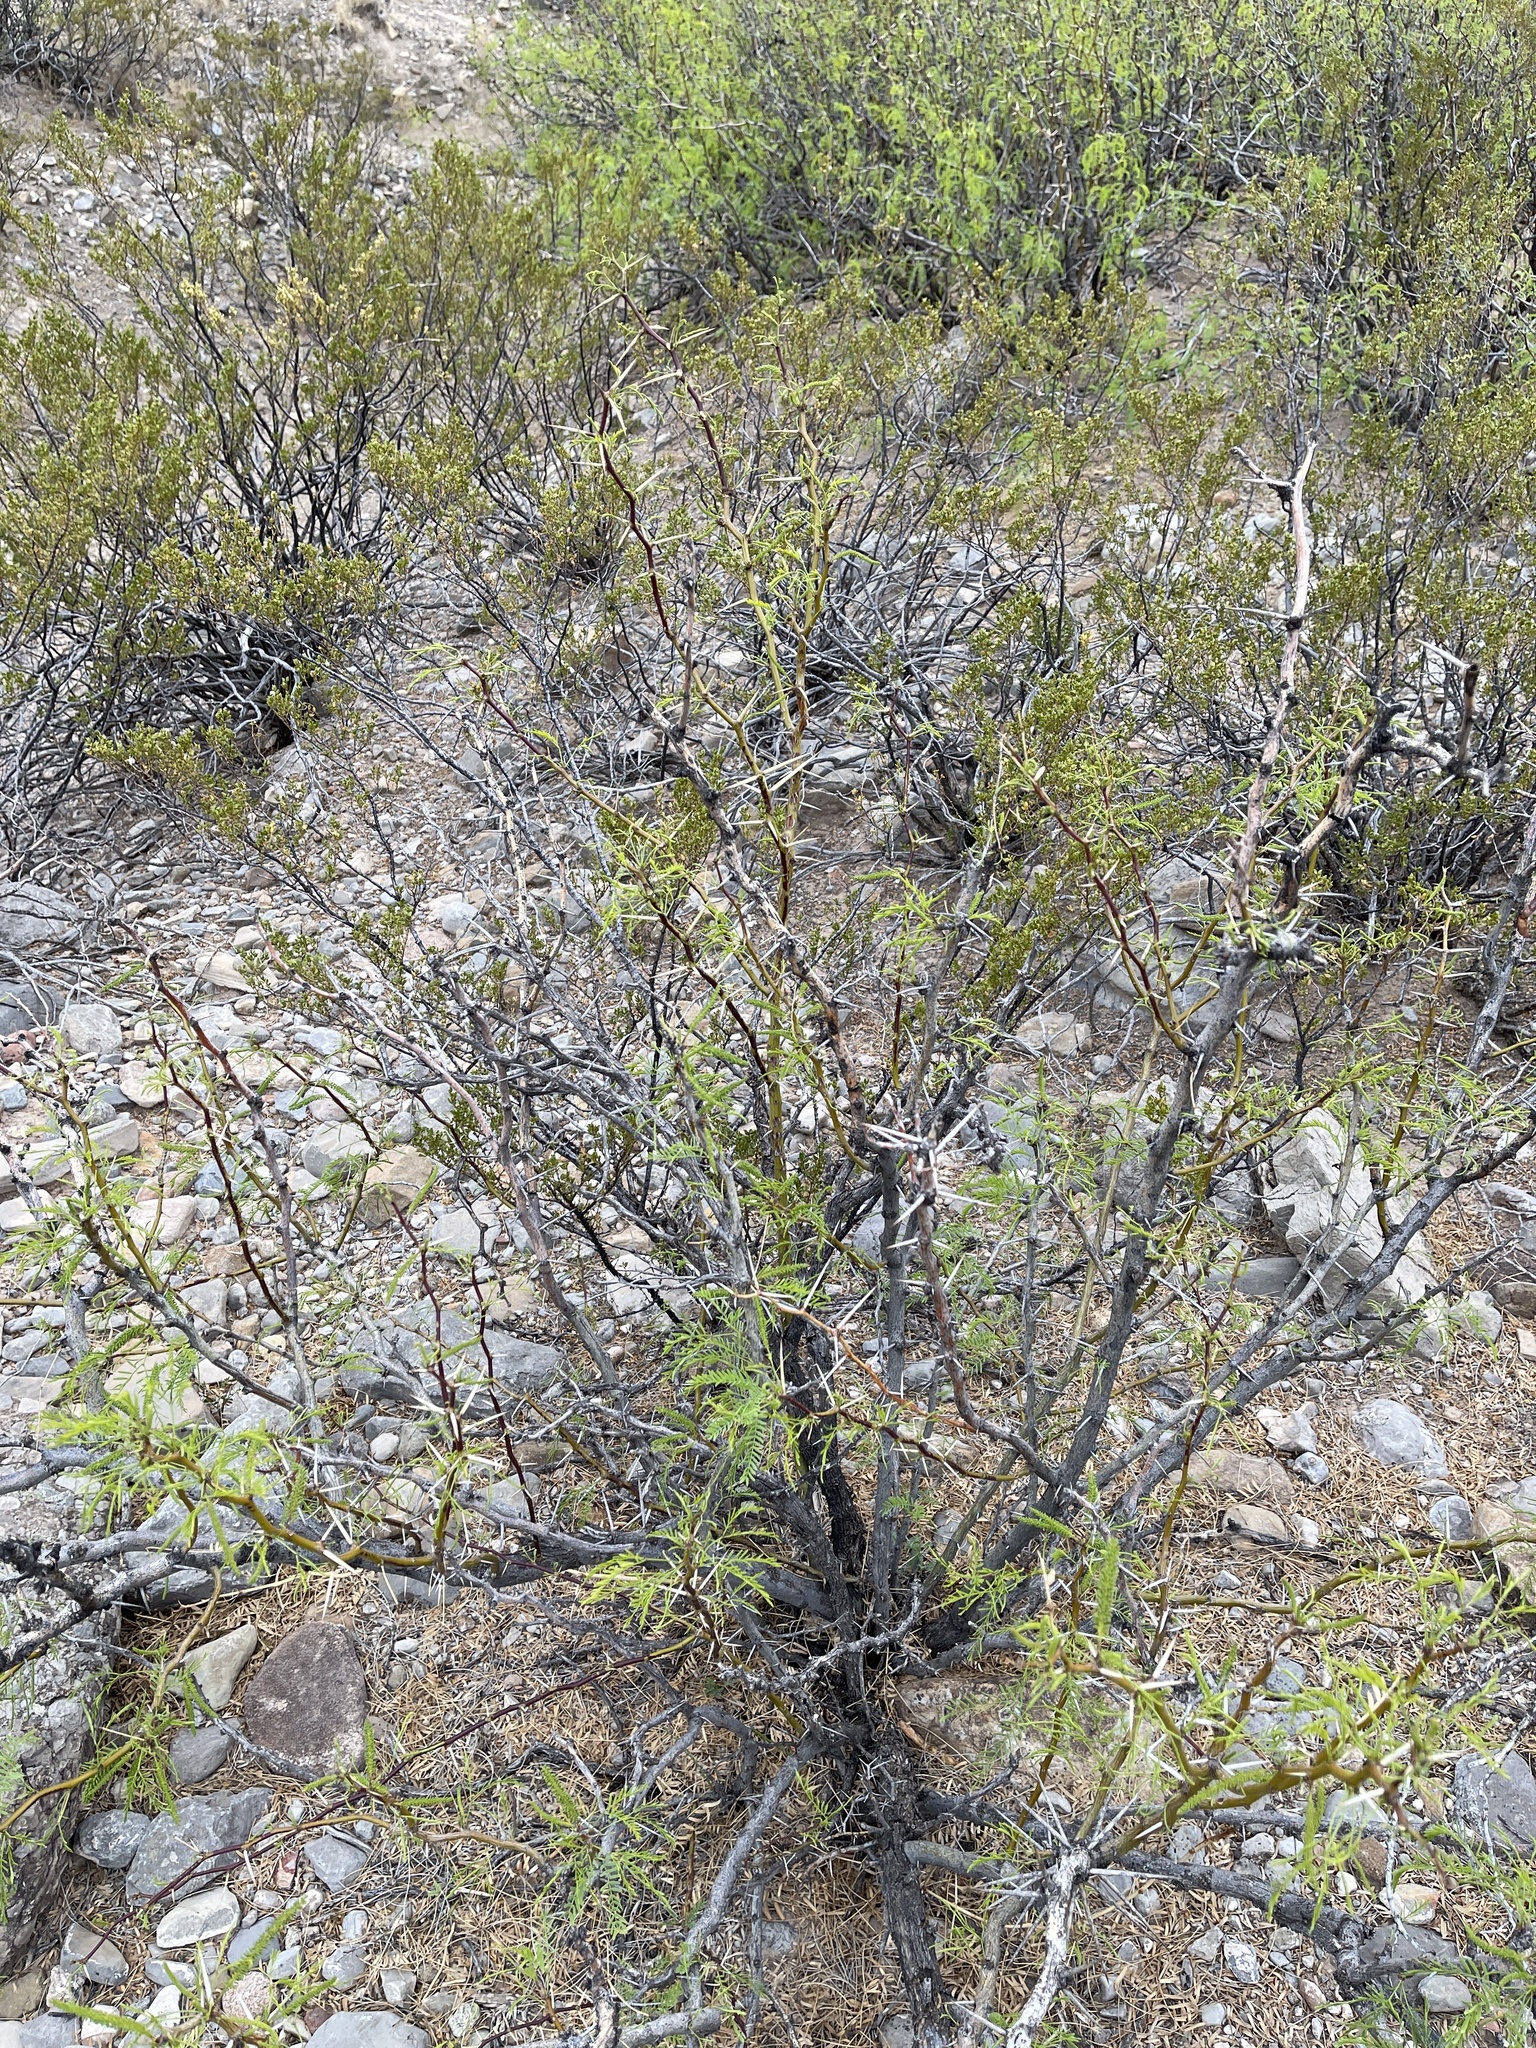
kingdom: Plantae
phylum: Tracheophyta
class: Magnoliopsida
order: Fabales
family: Fabaceae
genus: Prosopis
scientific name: Prosopis glandulosa
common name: Honey mesquite
